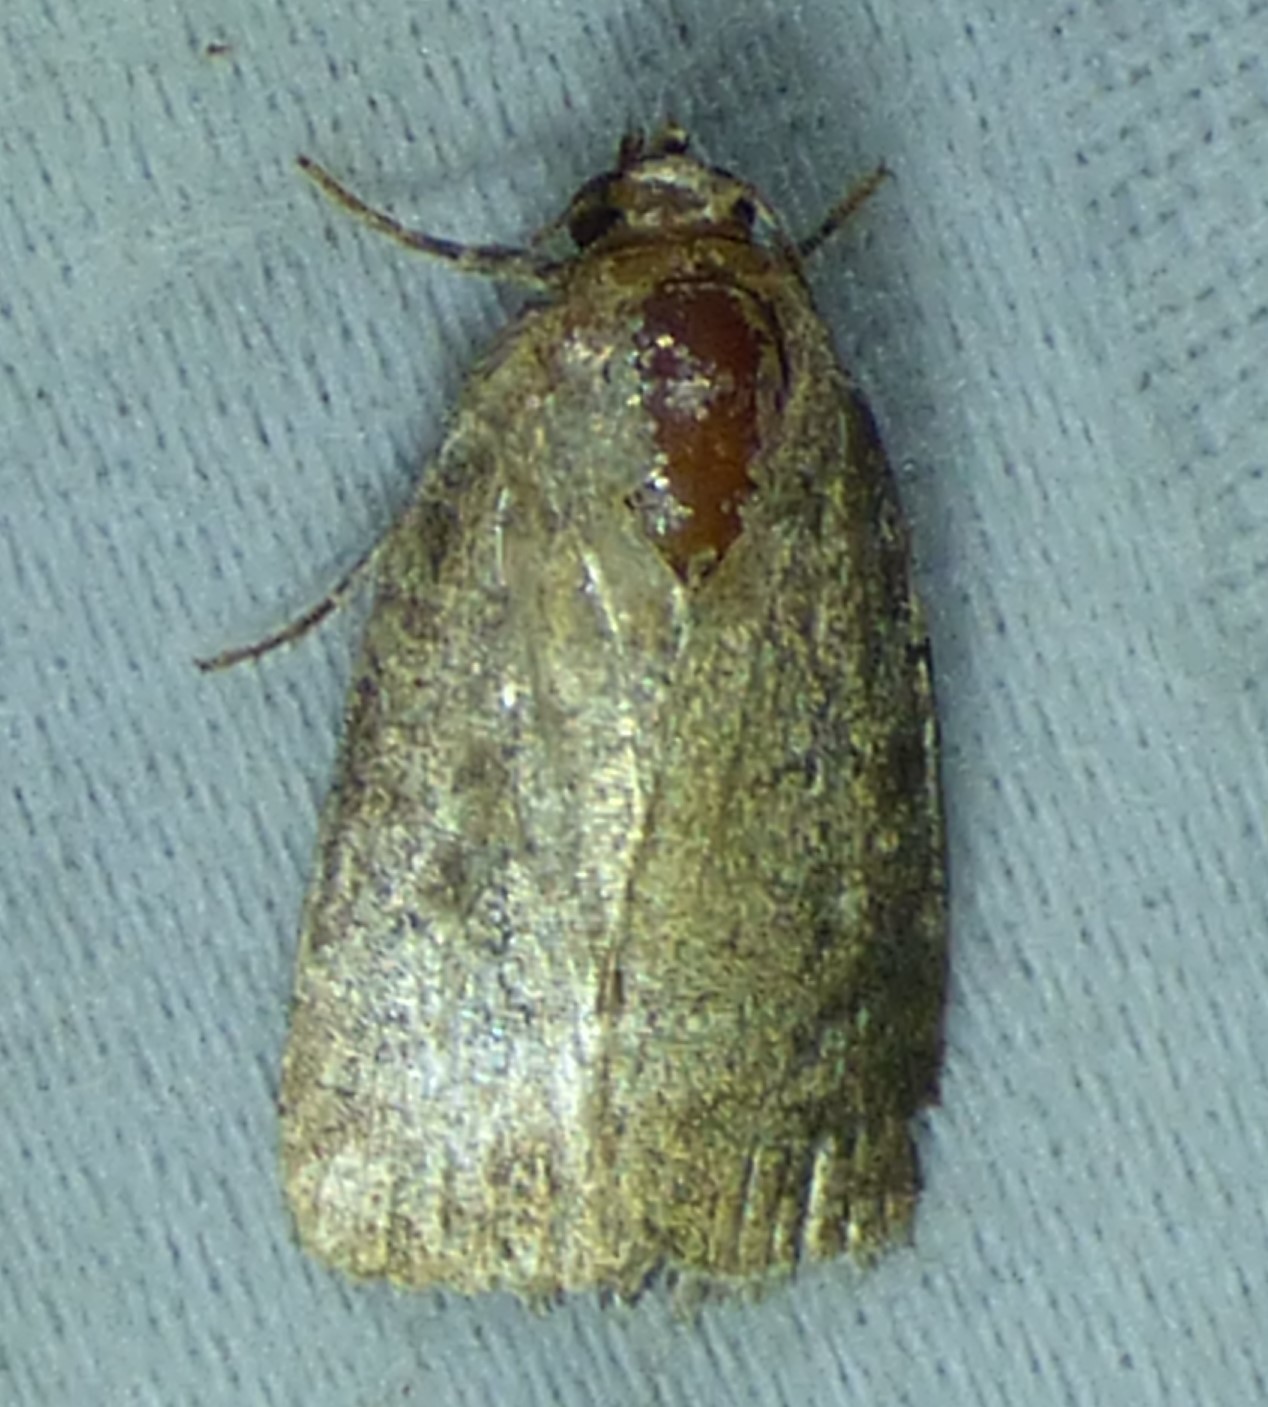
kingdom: Animalia
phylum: Arthropoda
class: Insecta
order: Lepidoptera
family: Noctuidae
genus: Elaphria
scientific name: Elaphria grata
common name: Grateful midget moth
